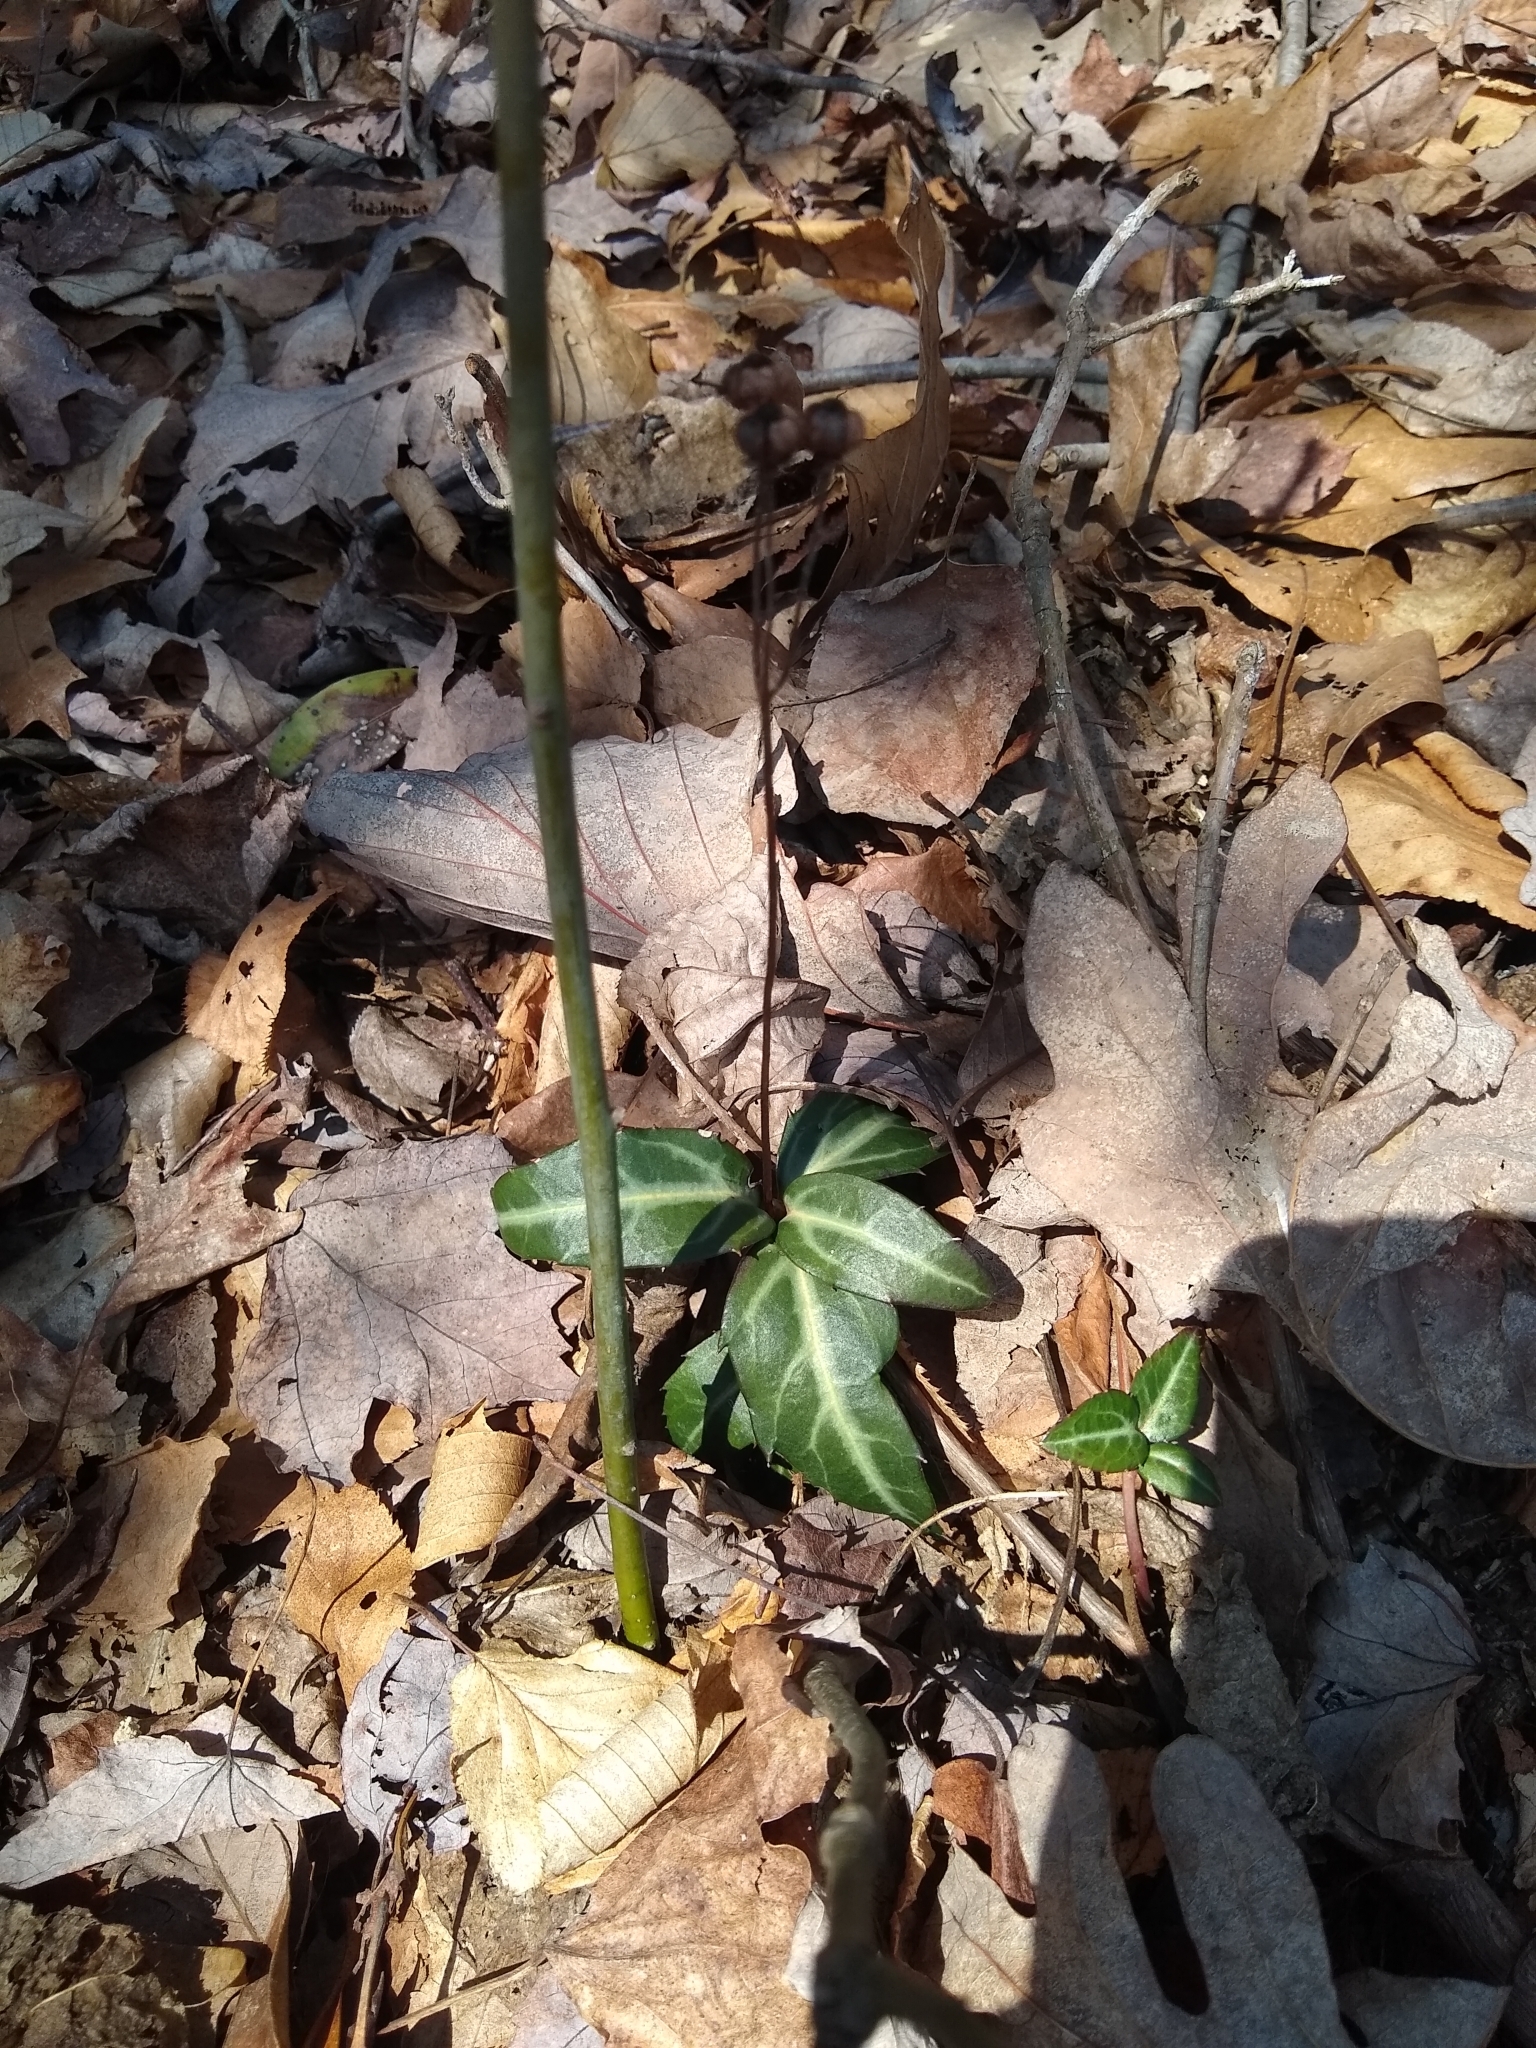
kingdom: Plantae
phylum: Tracheophyta
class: Magnoliopsida
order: Ericales
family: Ericaceae
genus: Chimaphila
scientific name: Chimaphila maculata
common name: Spotted pipsissewa
